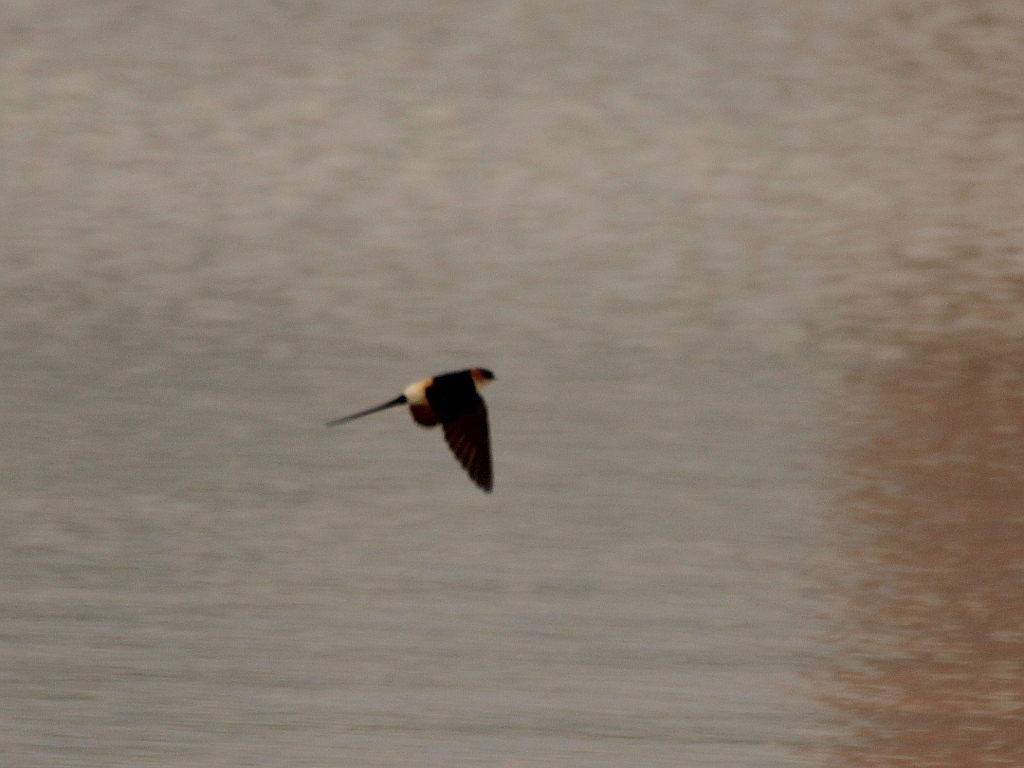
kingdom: Animalia
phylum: Chordata
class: Aves
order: Passeriformes
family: Hirundinidae
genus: Cecropis
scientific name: Cecropis daurica
